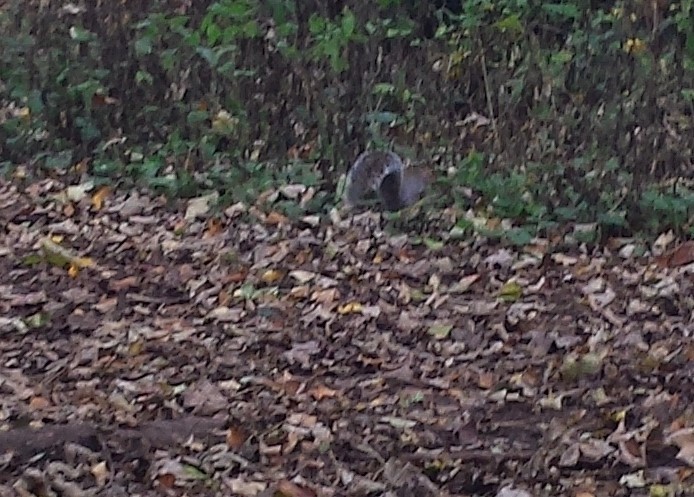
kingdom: Animalia
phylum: Chordata
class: Mammalia
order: Rodentia
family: Sciuridae
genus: Sciurus
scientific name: Sciurus carolinensis
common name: Eastern gray squirrel
